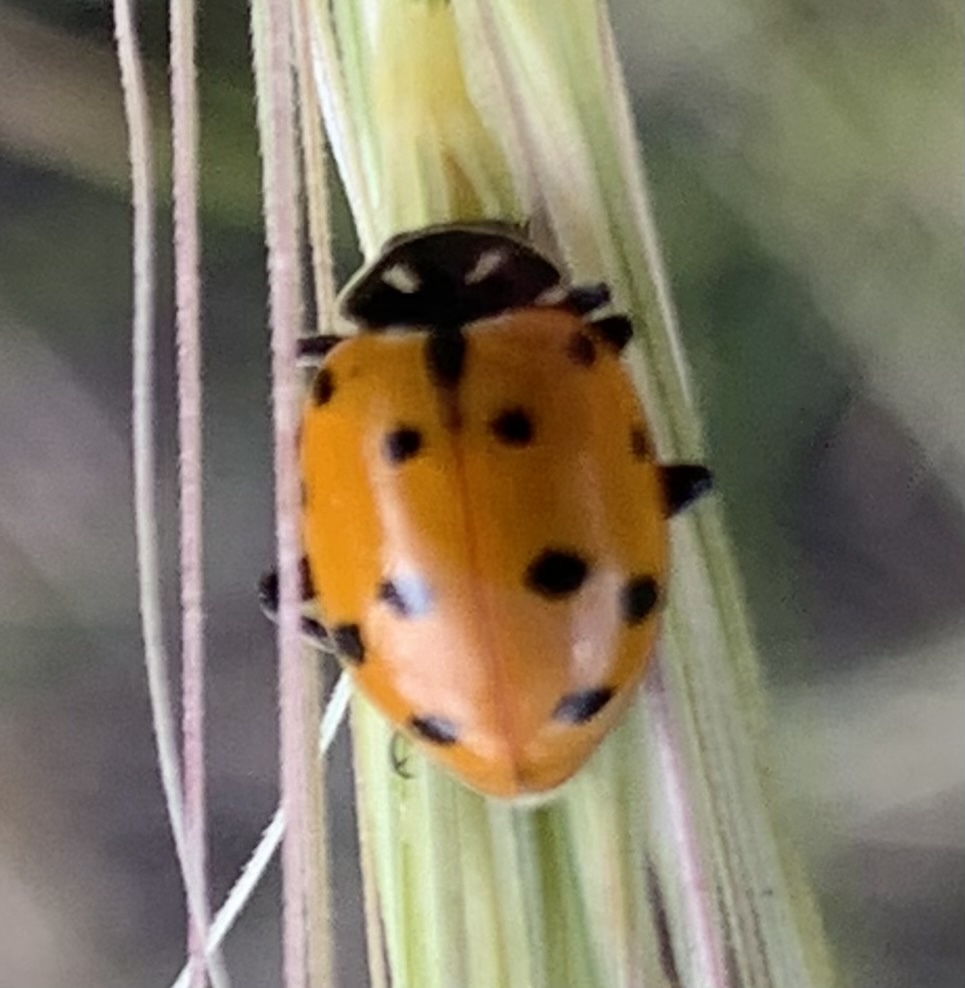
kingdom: Animalia
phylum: Arthropoda
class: Insecta
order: Coleoptera
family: Coccinellidae
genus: Hippodamia
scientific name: Hippodamia convergens
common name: Convergent lady beetle
